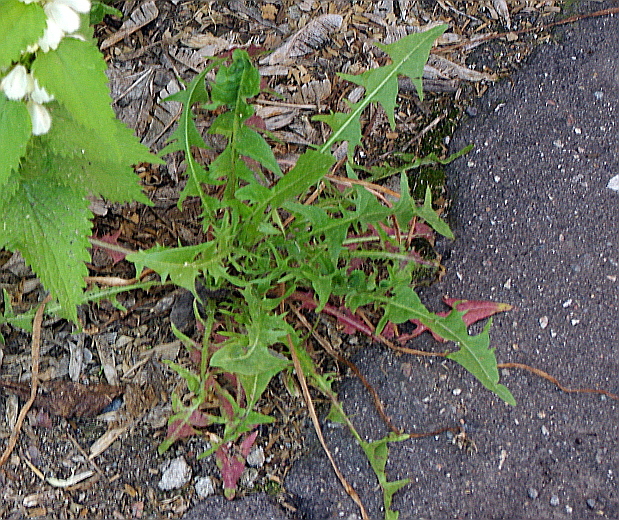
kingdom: Plantae
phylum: Tracheophyta
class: Magnoliopsida
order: Asterales
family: Asteraceae
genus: Taraxacum
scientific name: Taraxacum officinale
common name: Common dandelion
